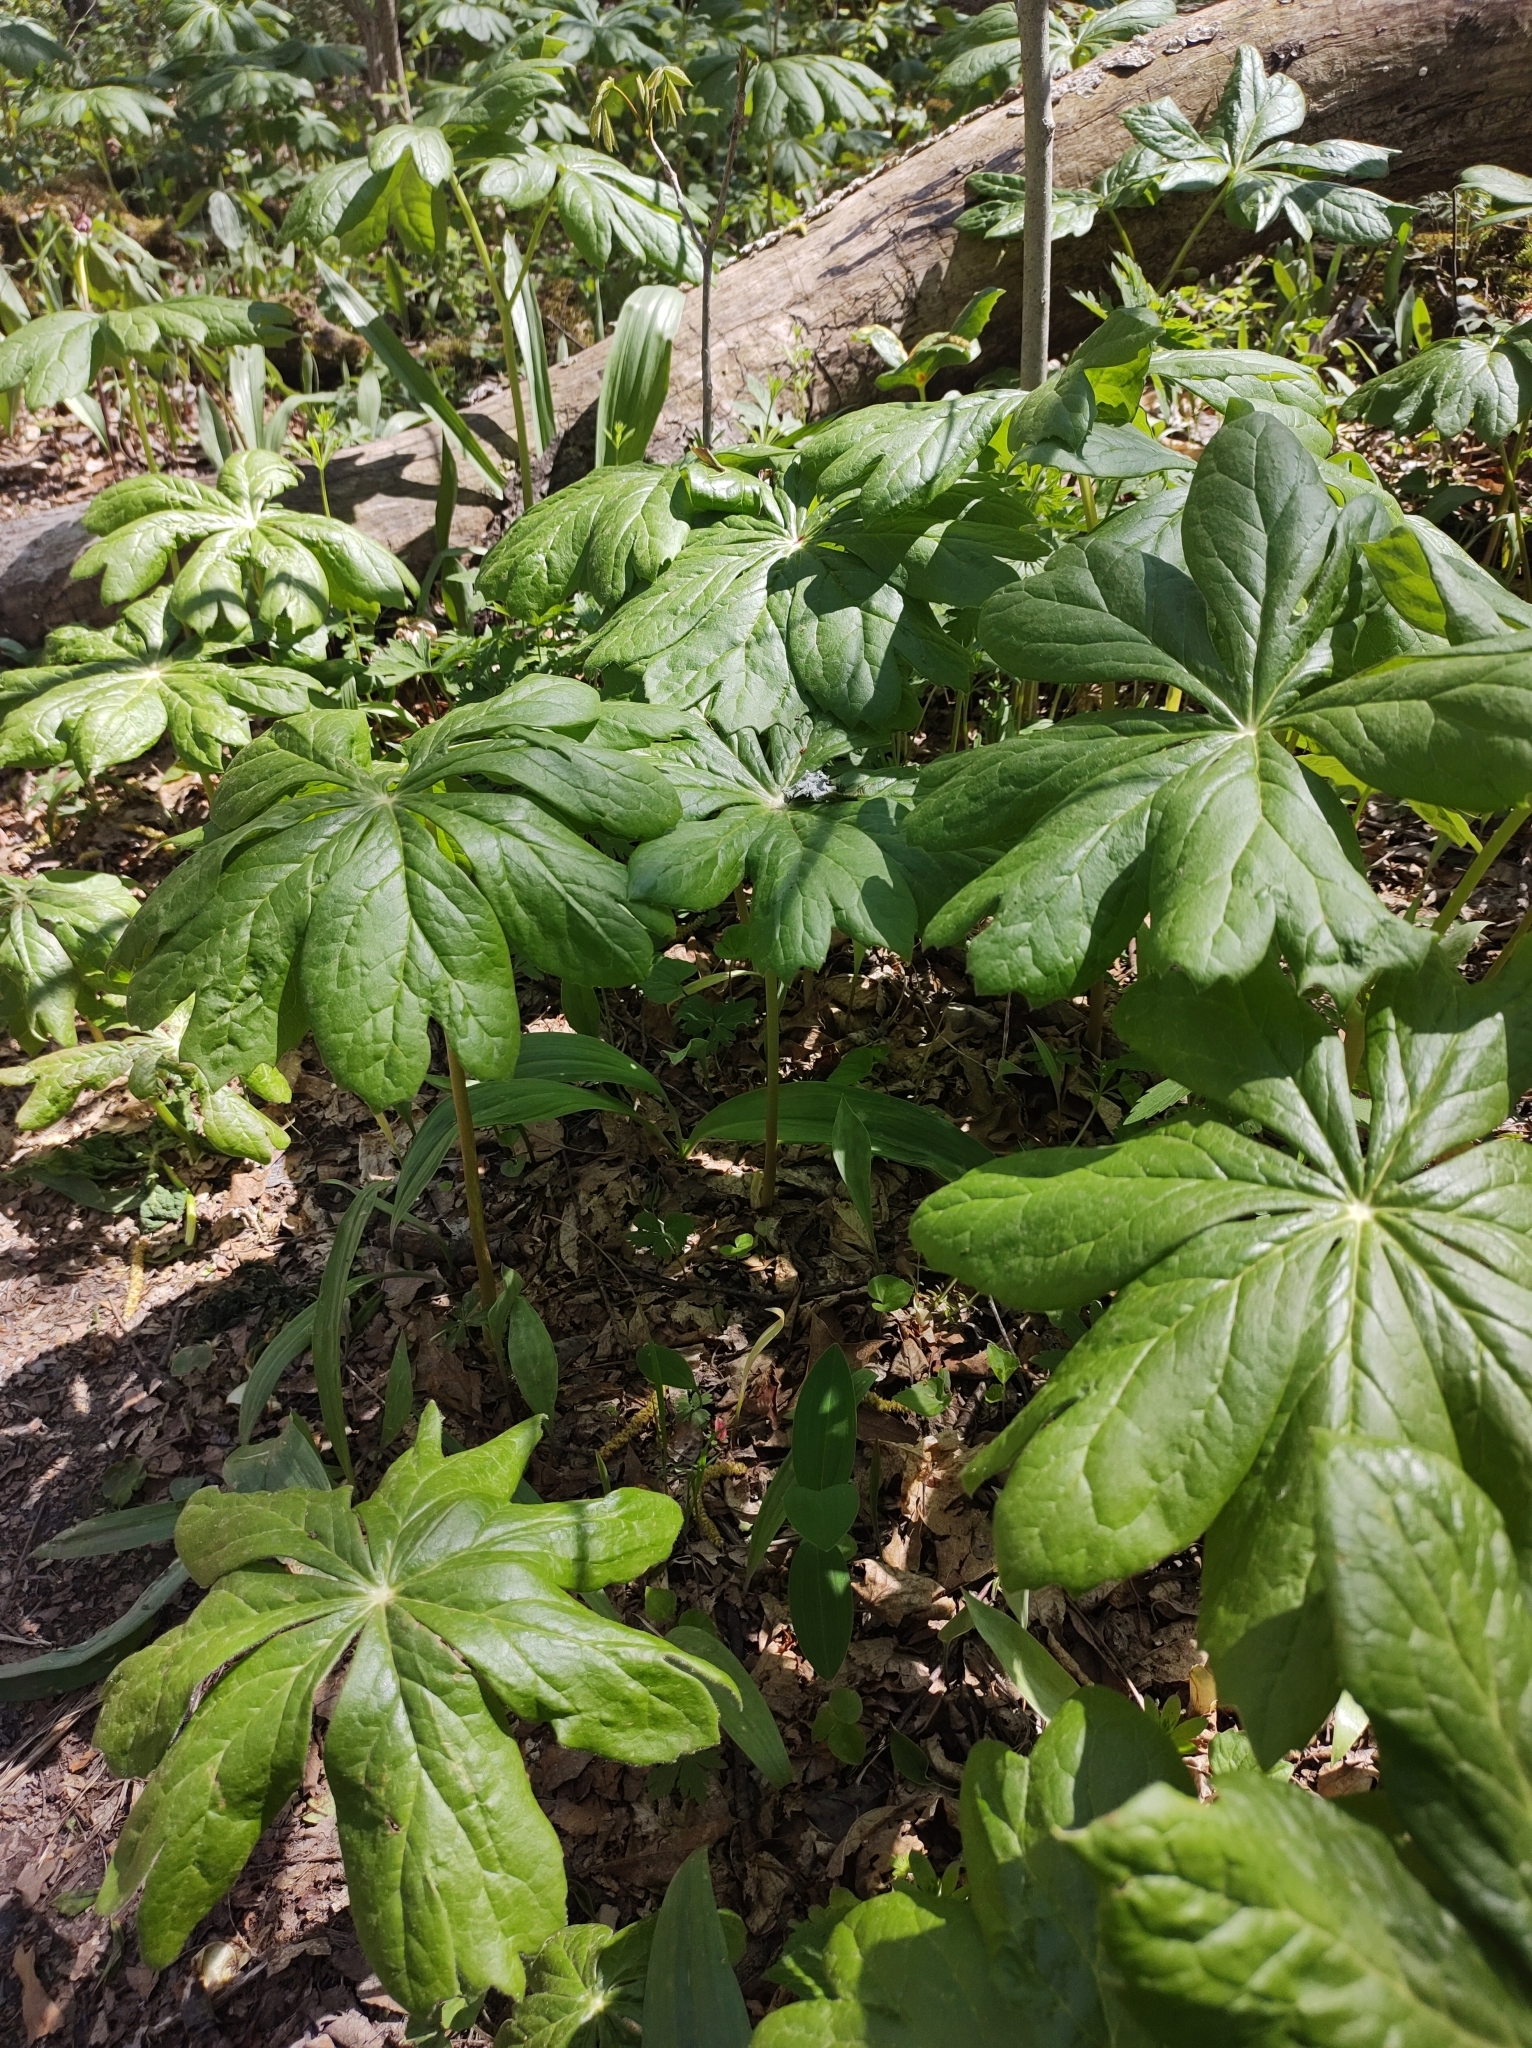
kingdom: Plantae
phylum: Tracheophyta
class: Magnoliopsida
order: Ranunculales
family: Berberidaceae
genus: Podophyllum
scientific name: Podophyllum peltatum
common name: Wild mandrake
